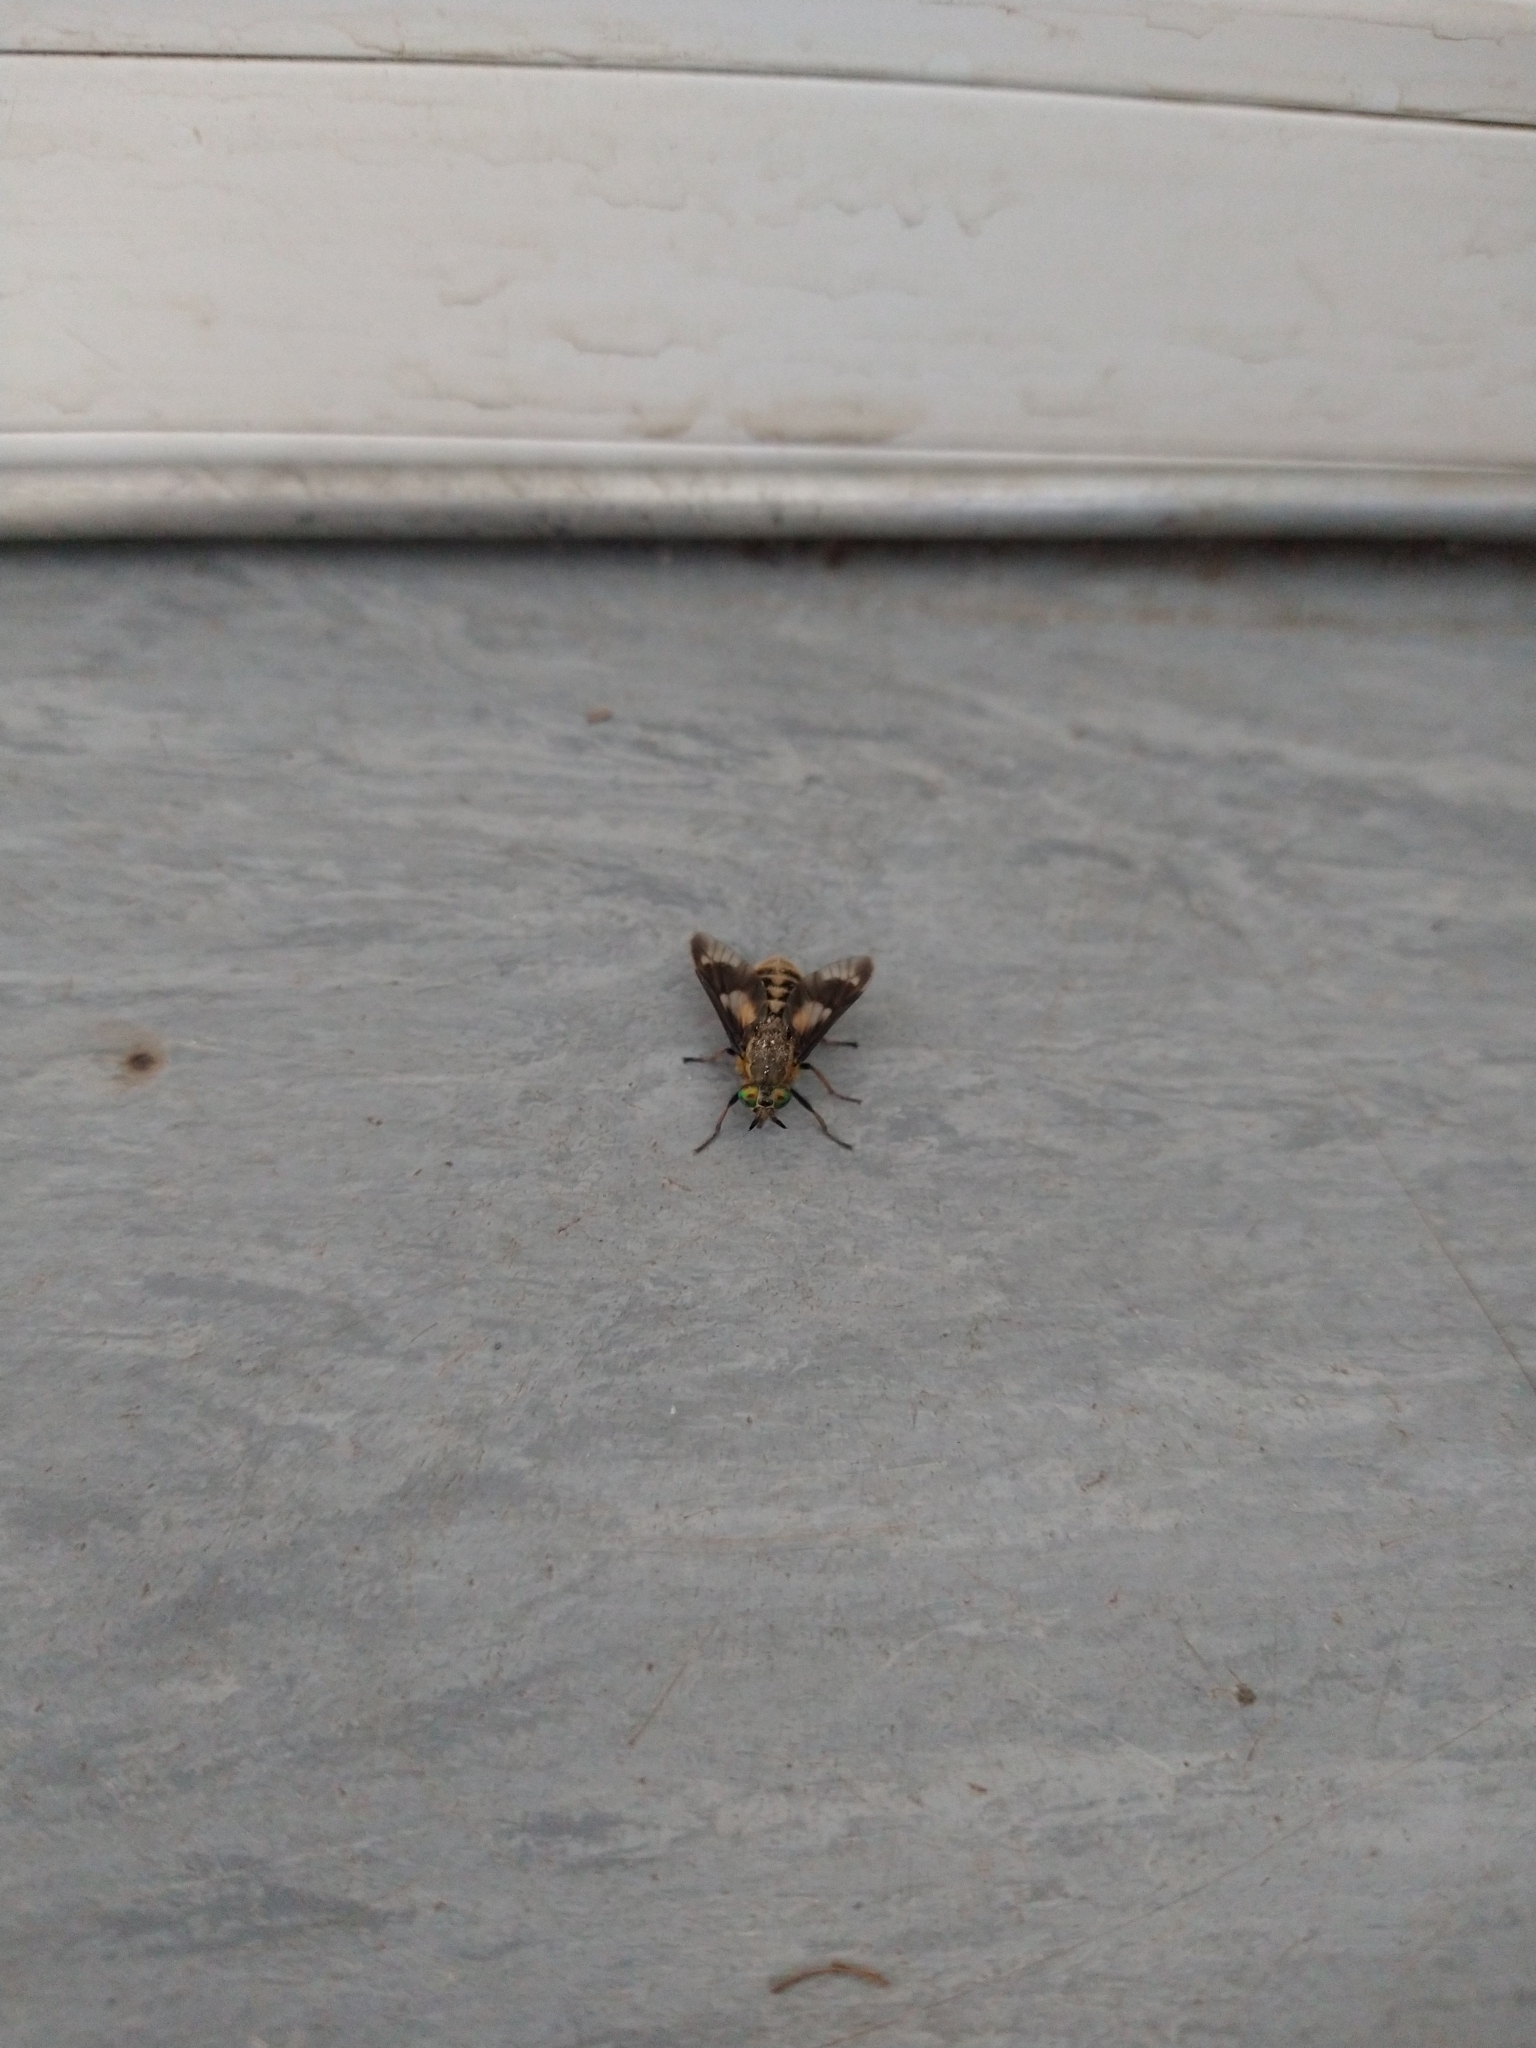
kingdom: Animalia
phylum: Arthropoda
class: Insecta
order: Diptera
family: Tabanidae
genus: Chrysops
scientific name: Chrysops relictus
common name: Twin-lobed deerfly
